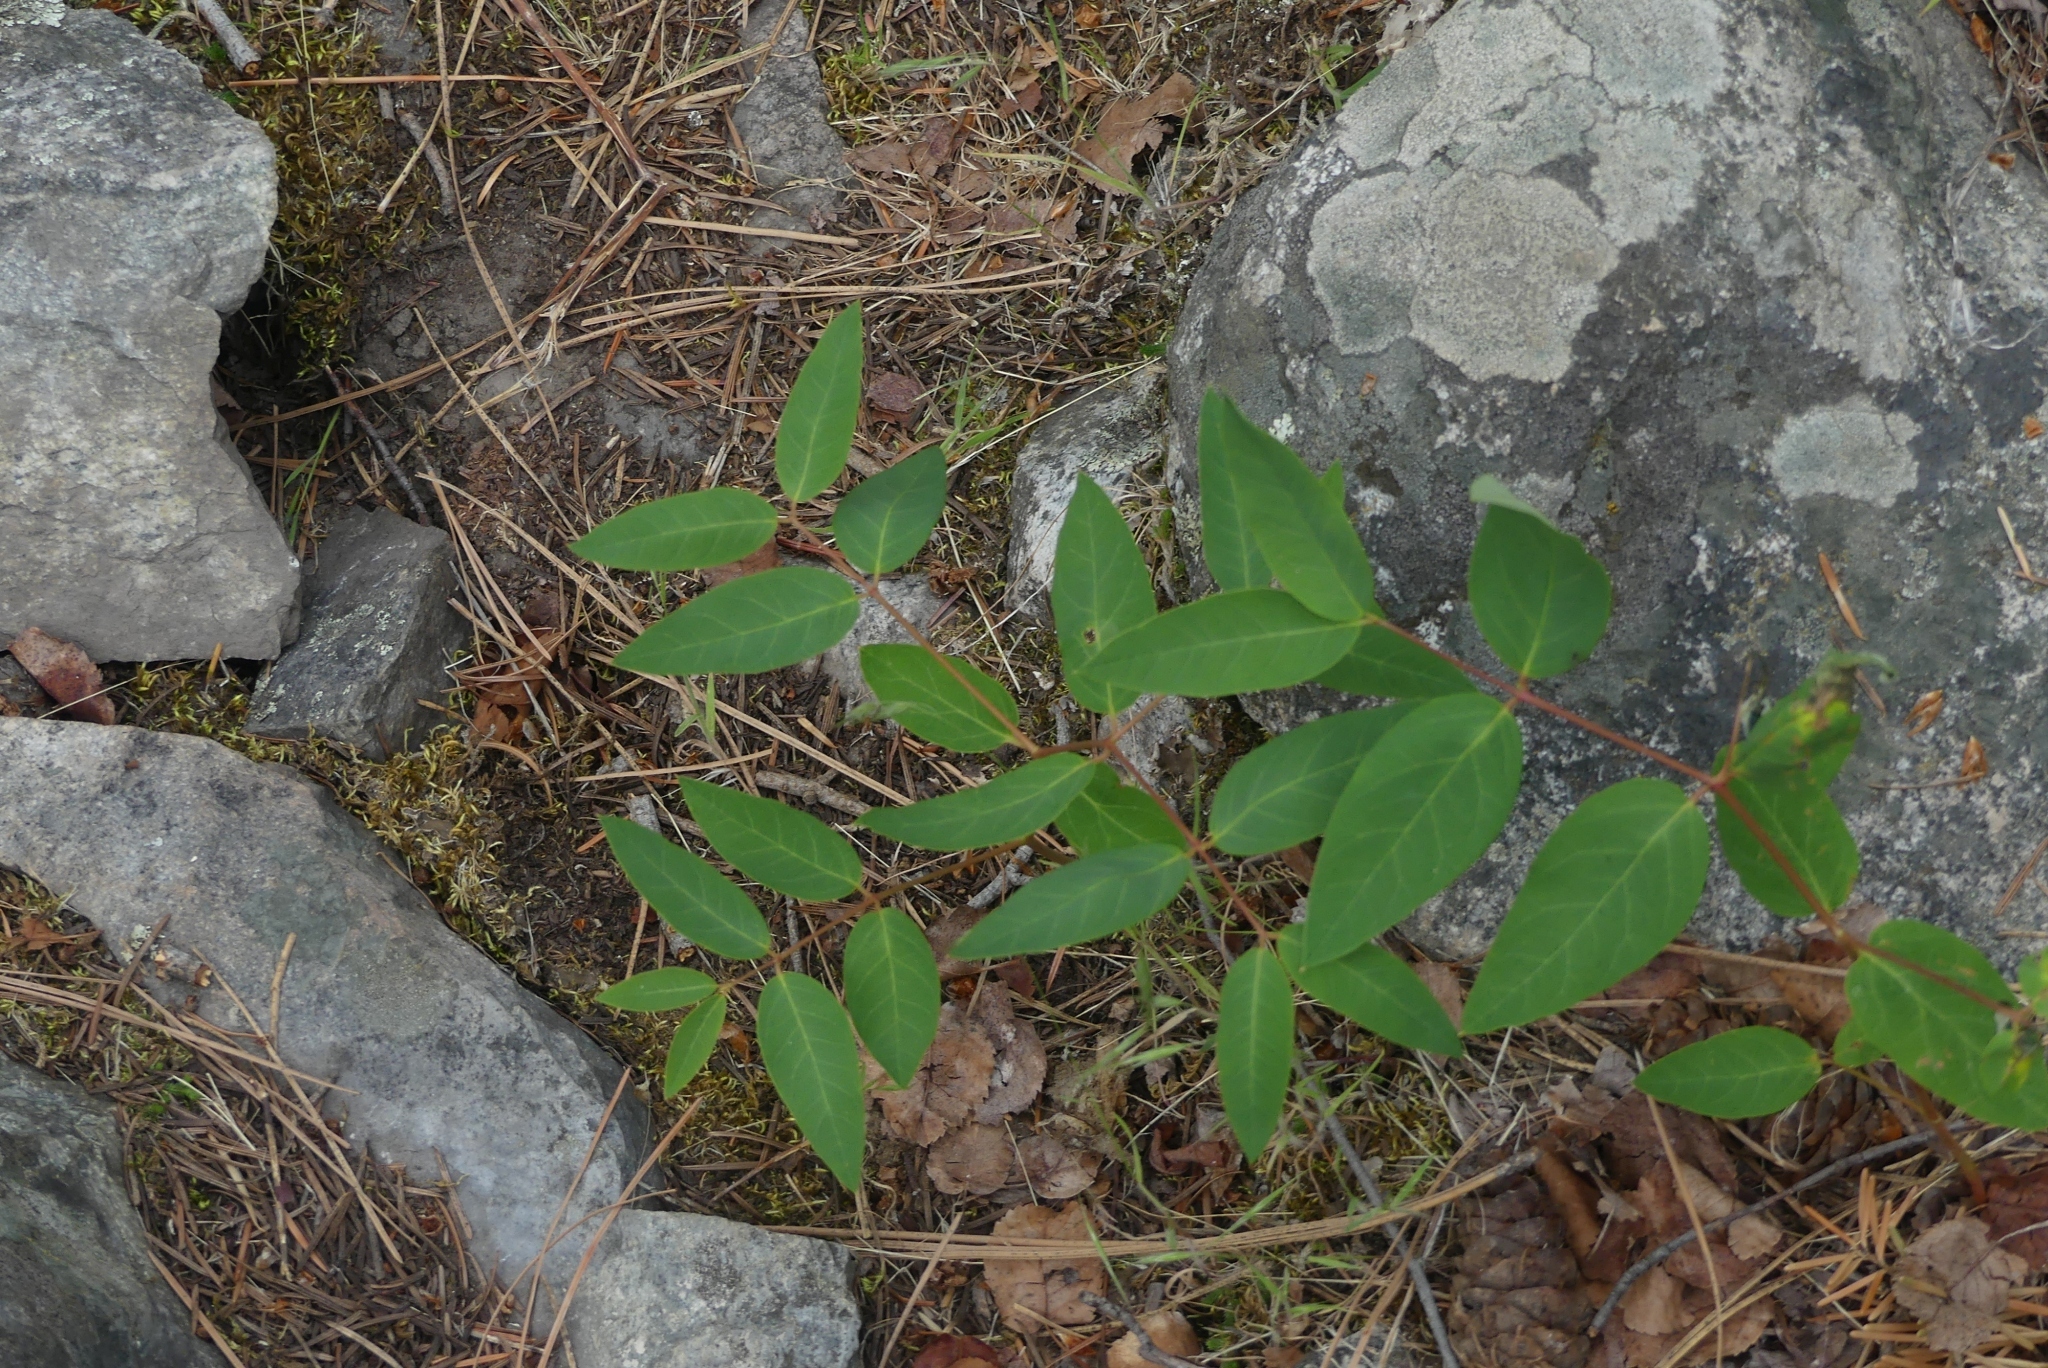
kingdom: Plantae
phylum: Tracheophyta
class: Magnoliopsida
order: Gentianales
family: Apocynaceae
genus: Apocynum
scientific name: Apocynum androsaemifolium
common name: Spreading dogbane
